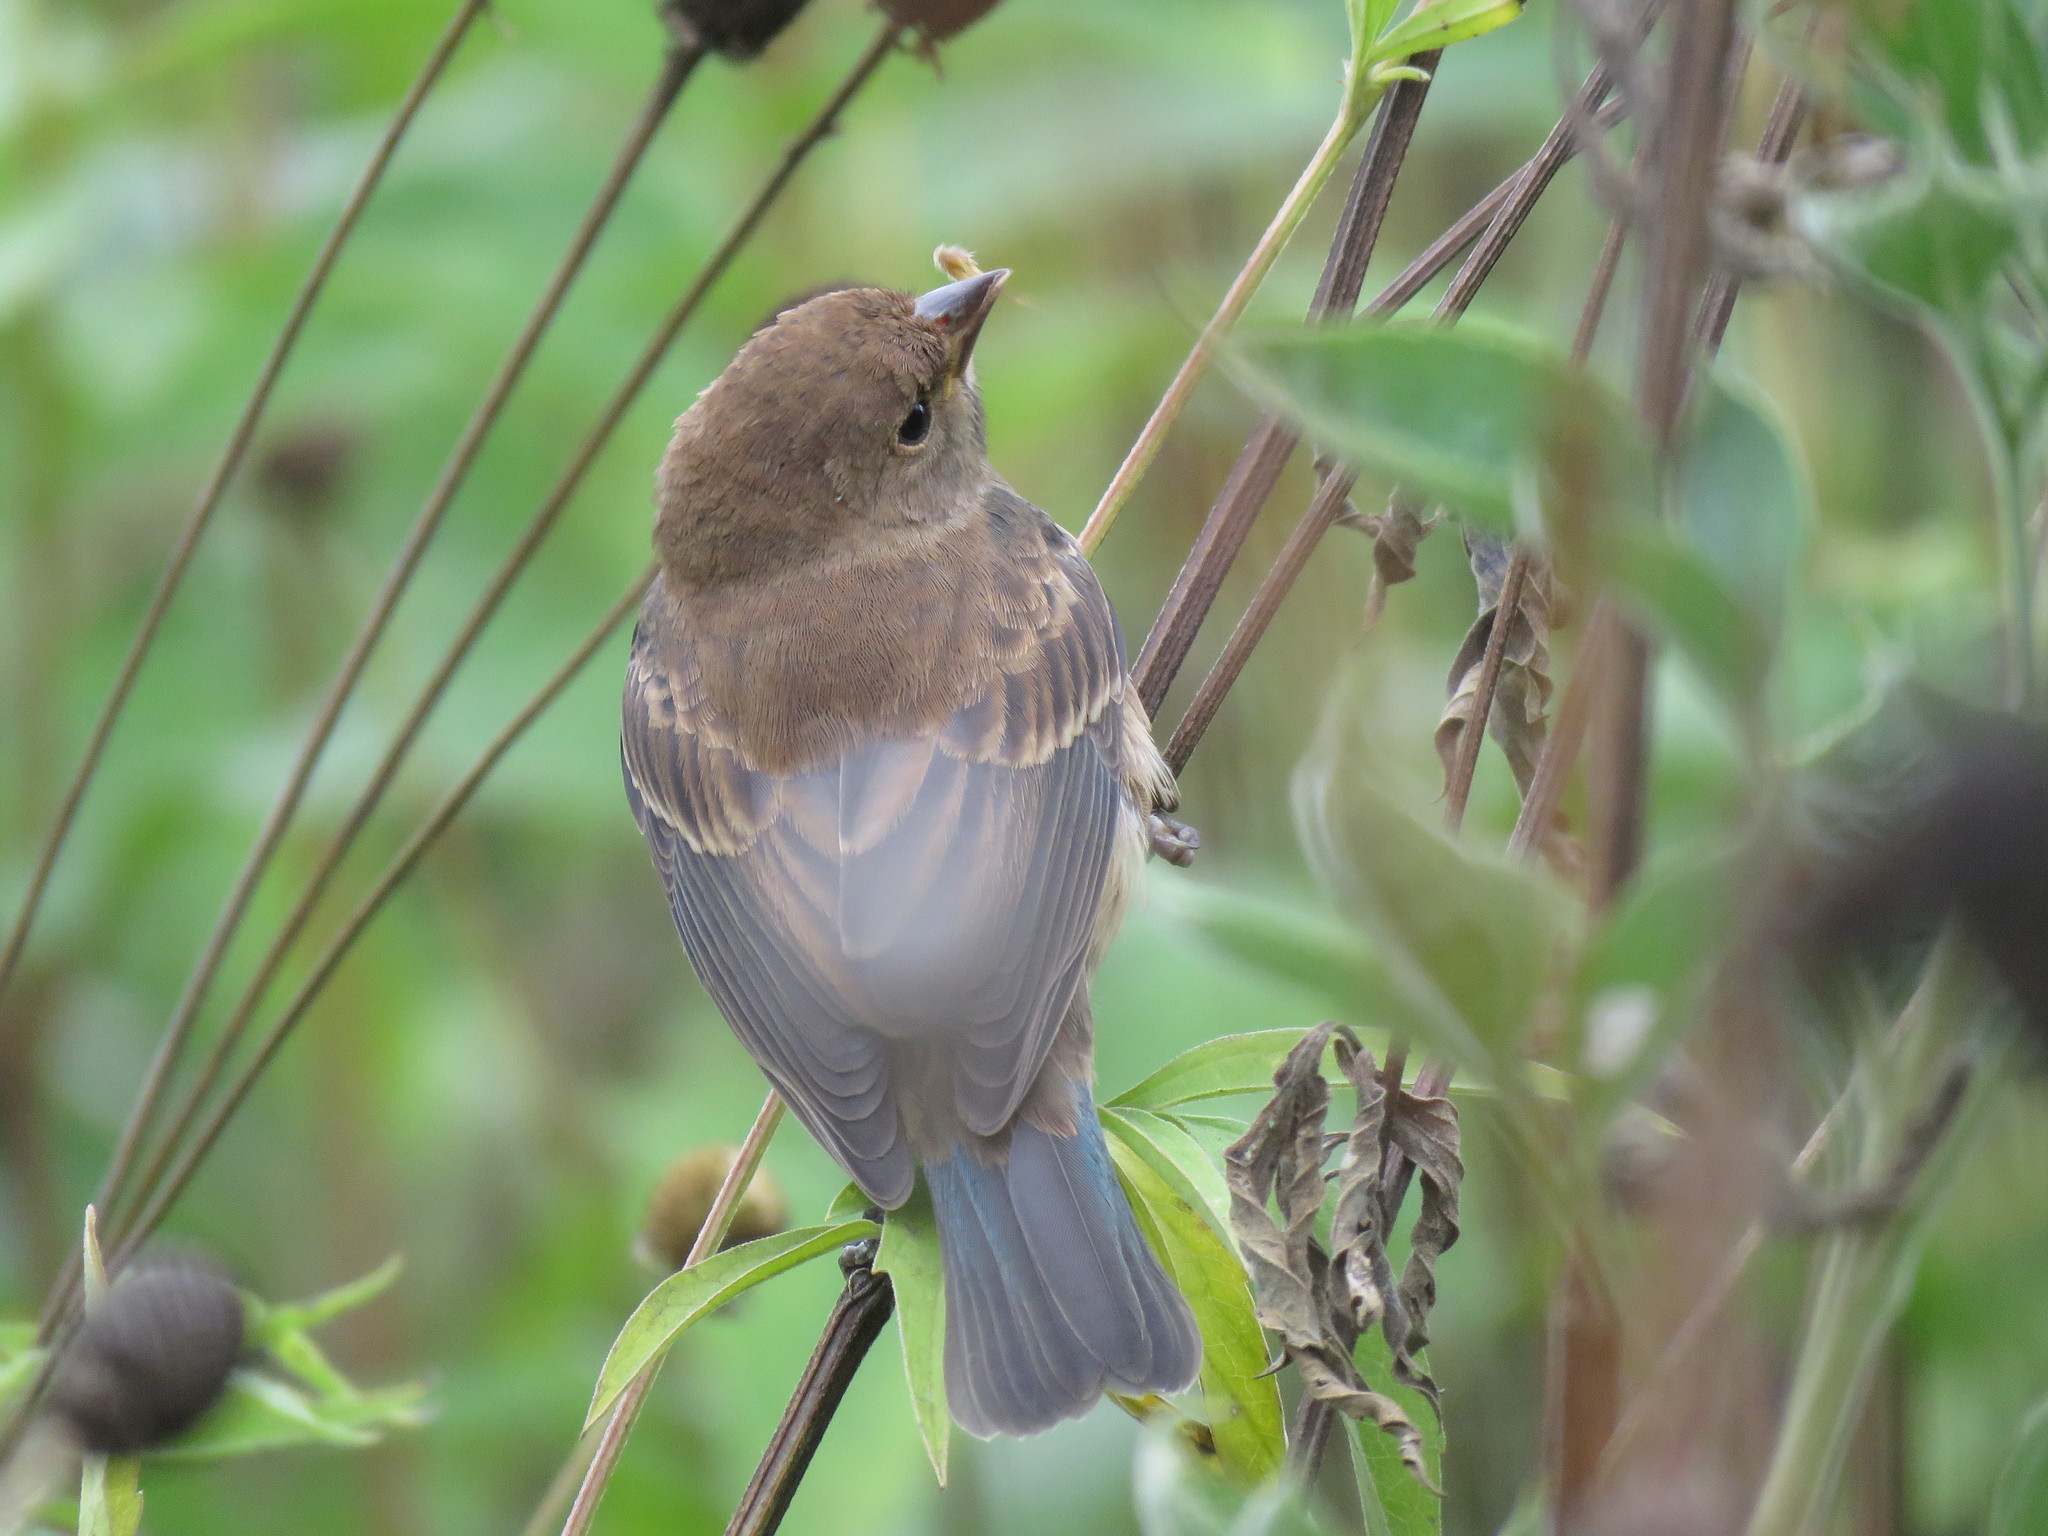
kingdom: Animalia
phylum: Chordata
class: Aves
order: Passeriformes
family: Cardinalidae
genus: Passerina
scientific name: Passerina cyanea
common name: Indigo bunting
